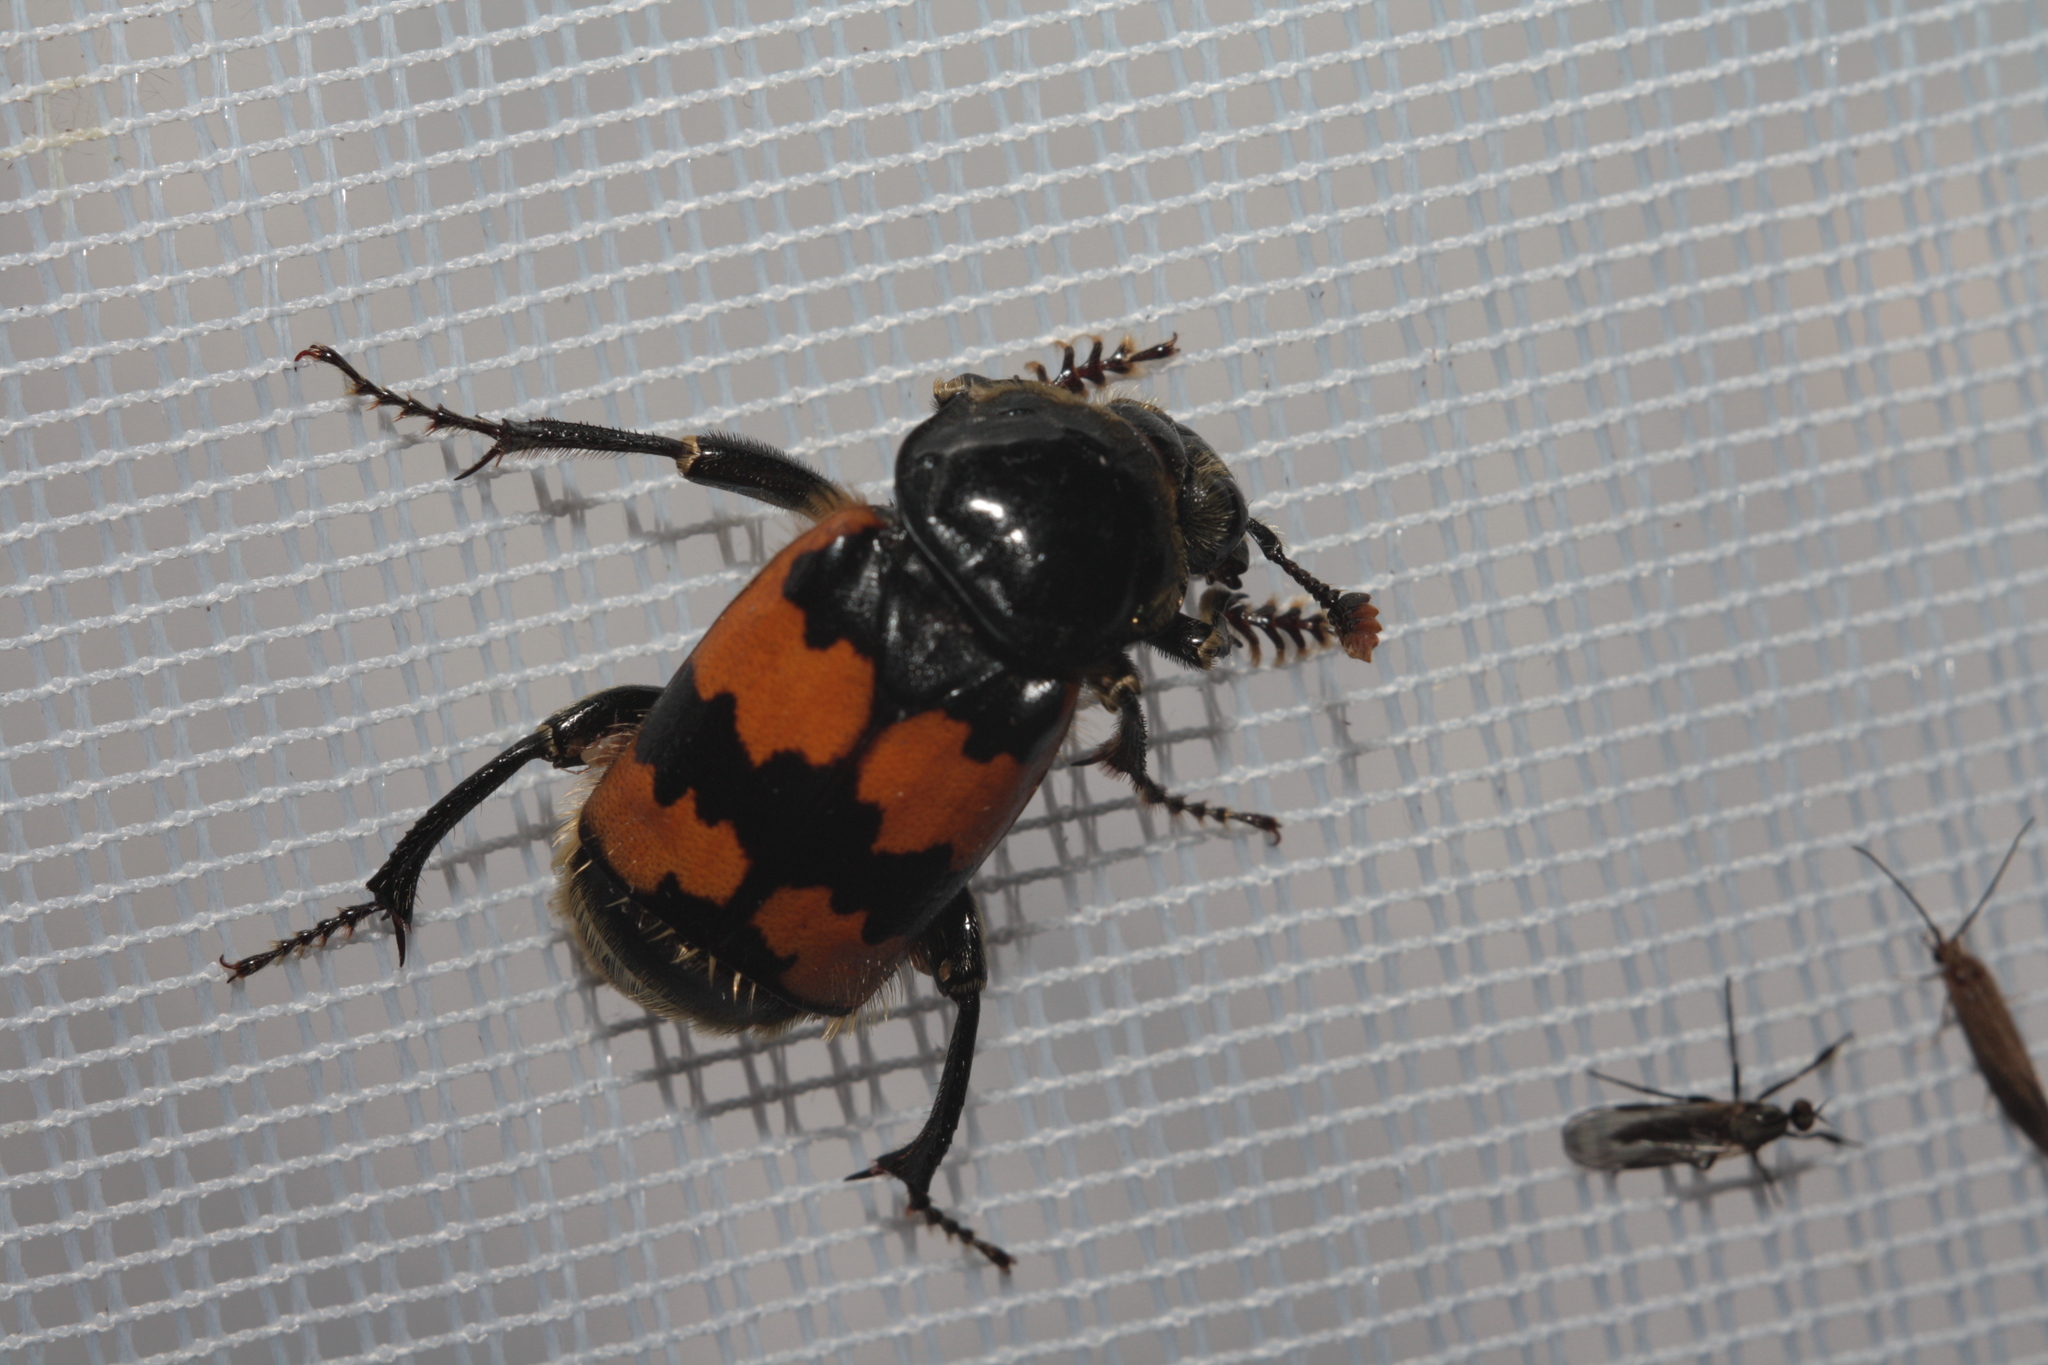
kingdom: Animalia
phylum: Arthropoda
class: Insecta
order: Coleoptera
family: Staphylinidae
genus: Nicrophorus
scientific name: Nicrophorus vespillo
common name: Common burying beetle
